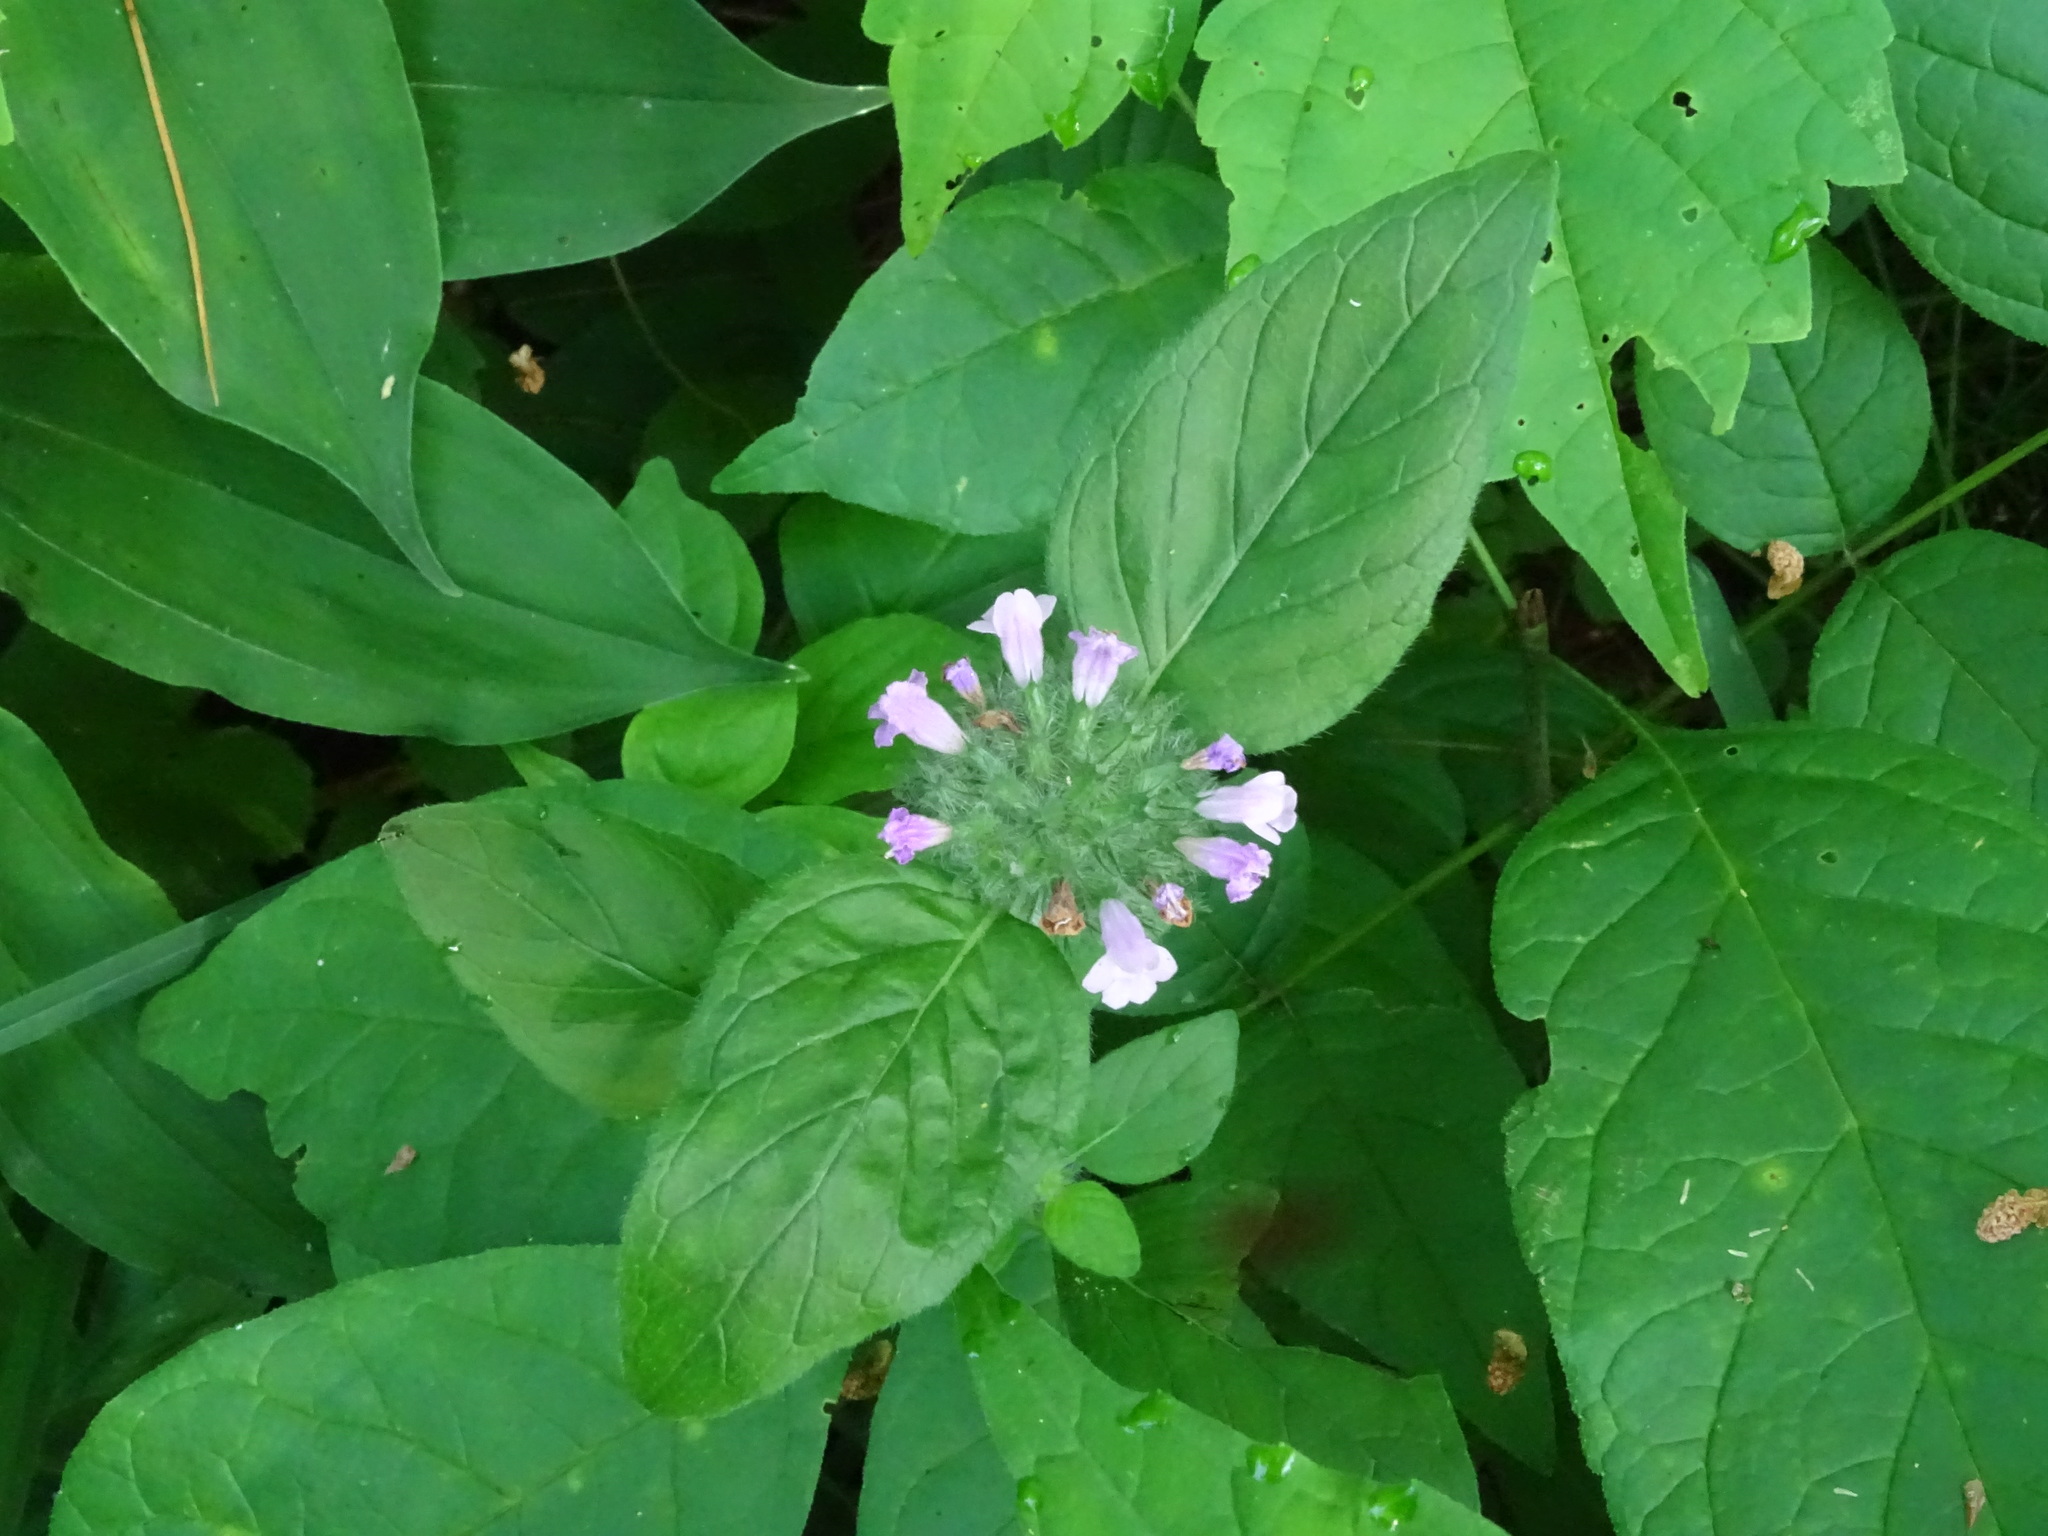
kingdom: Plantae
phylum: Tracheophyta
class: Magnoliopsida
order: Lamiales
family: Lamiaceae
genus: Clinopodium
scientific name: Clinopodium vulgare
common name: Wild basil
